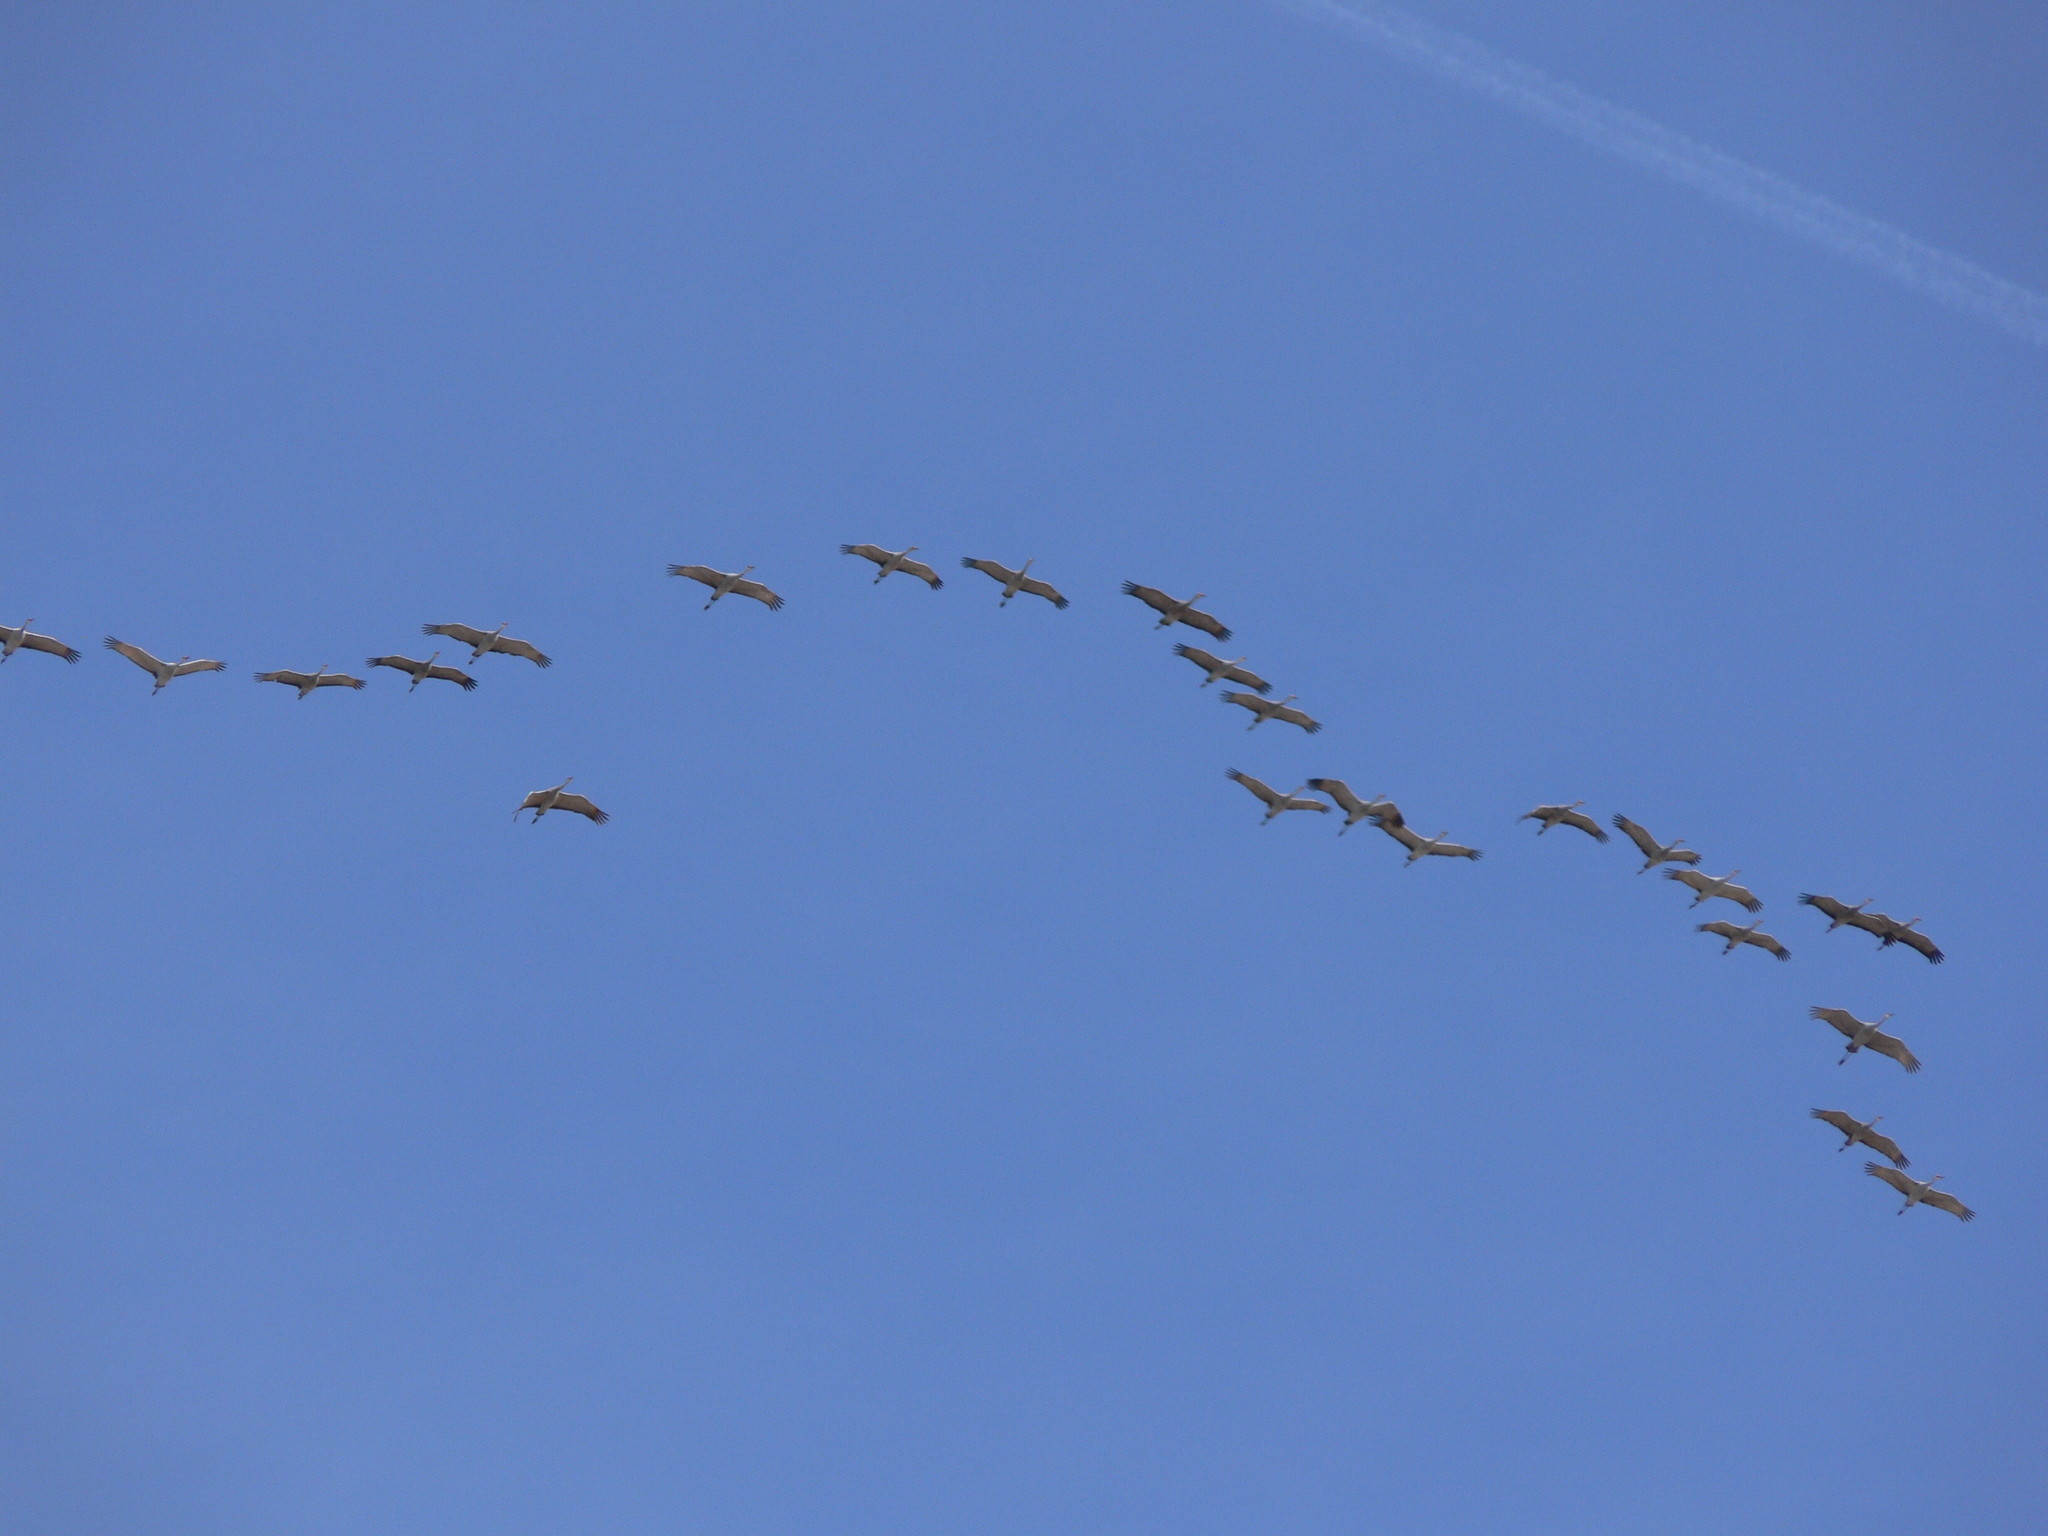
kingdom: Animalia
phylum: Chordata
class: Aves
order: Gruiformes
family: Gruidae
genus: Grus
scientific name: Grus canadensis
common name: Sandhill crane
